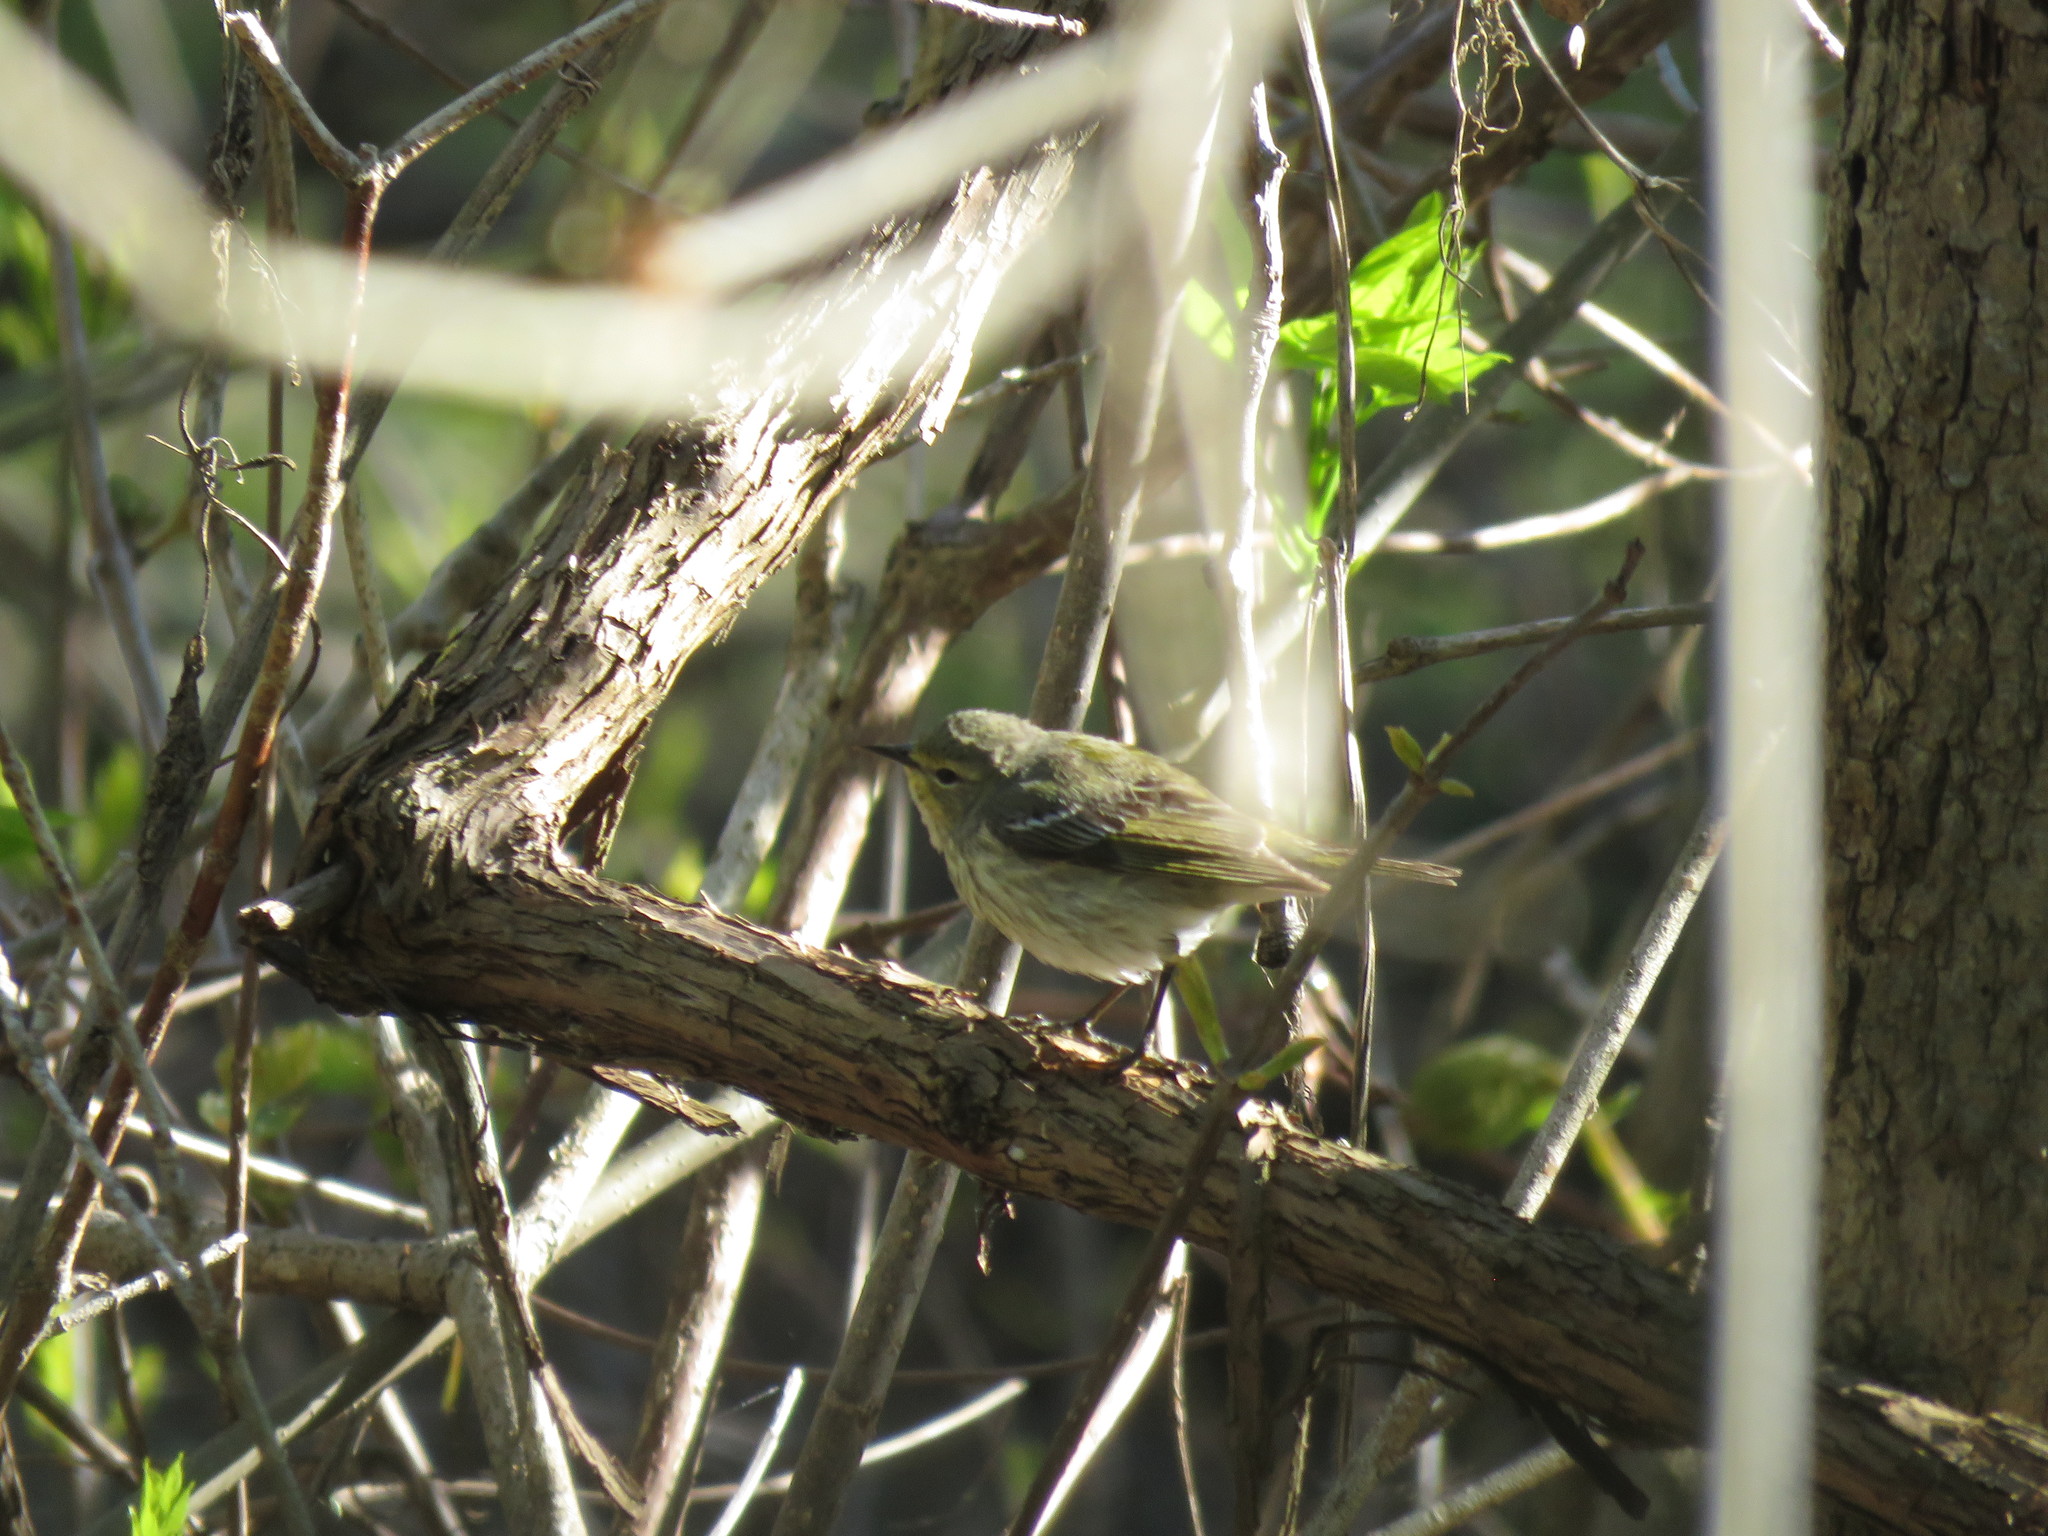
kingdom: Animalia
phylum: Chordata
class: Aves
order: Passeriformes
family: Parulidae
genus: Setophaga
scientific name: Setophaga tigrina
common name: Cape may warbler
